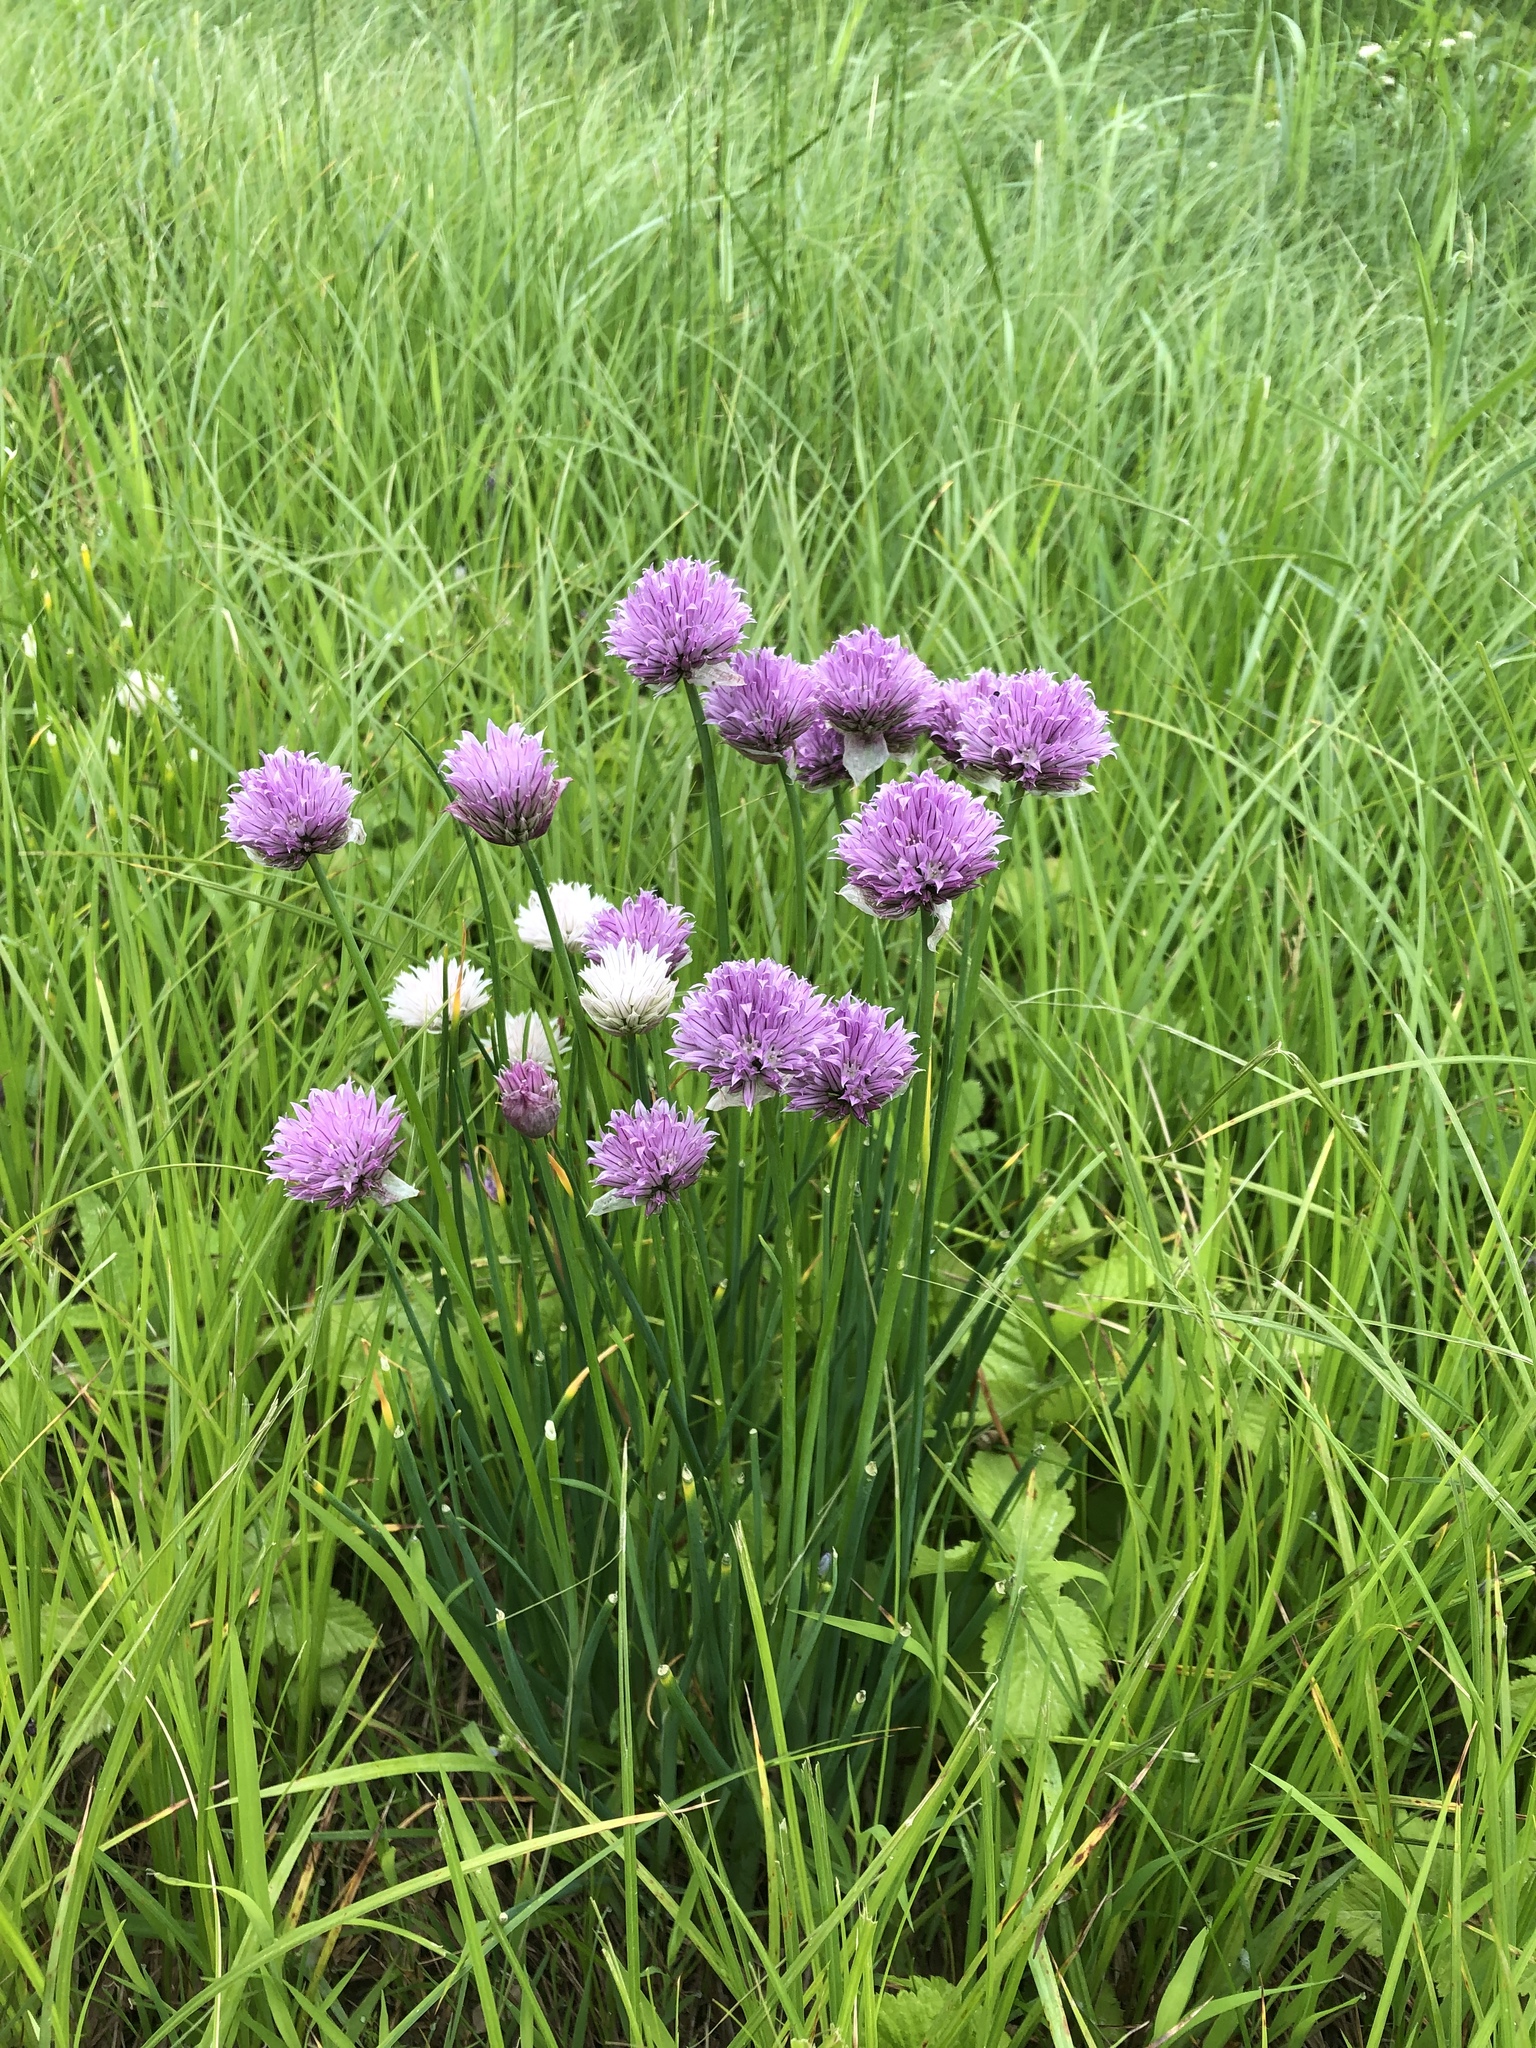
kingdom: Plantae
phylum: Tracheophyta
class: Liliopsida
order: Asparagales
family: Amaryllidaceae
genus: Allium
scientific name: Allium schoenoprasum
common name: Chives
